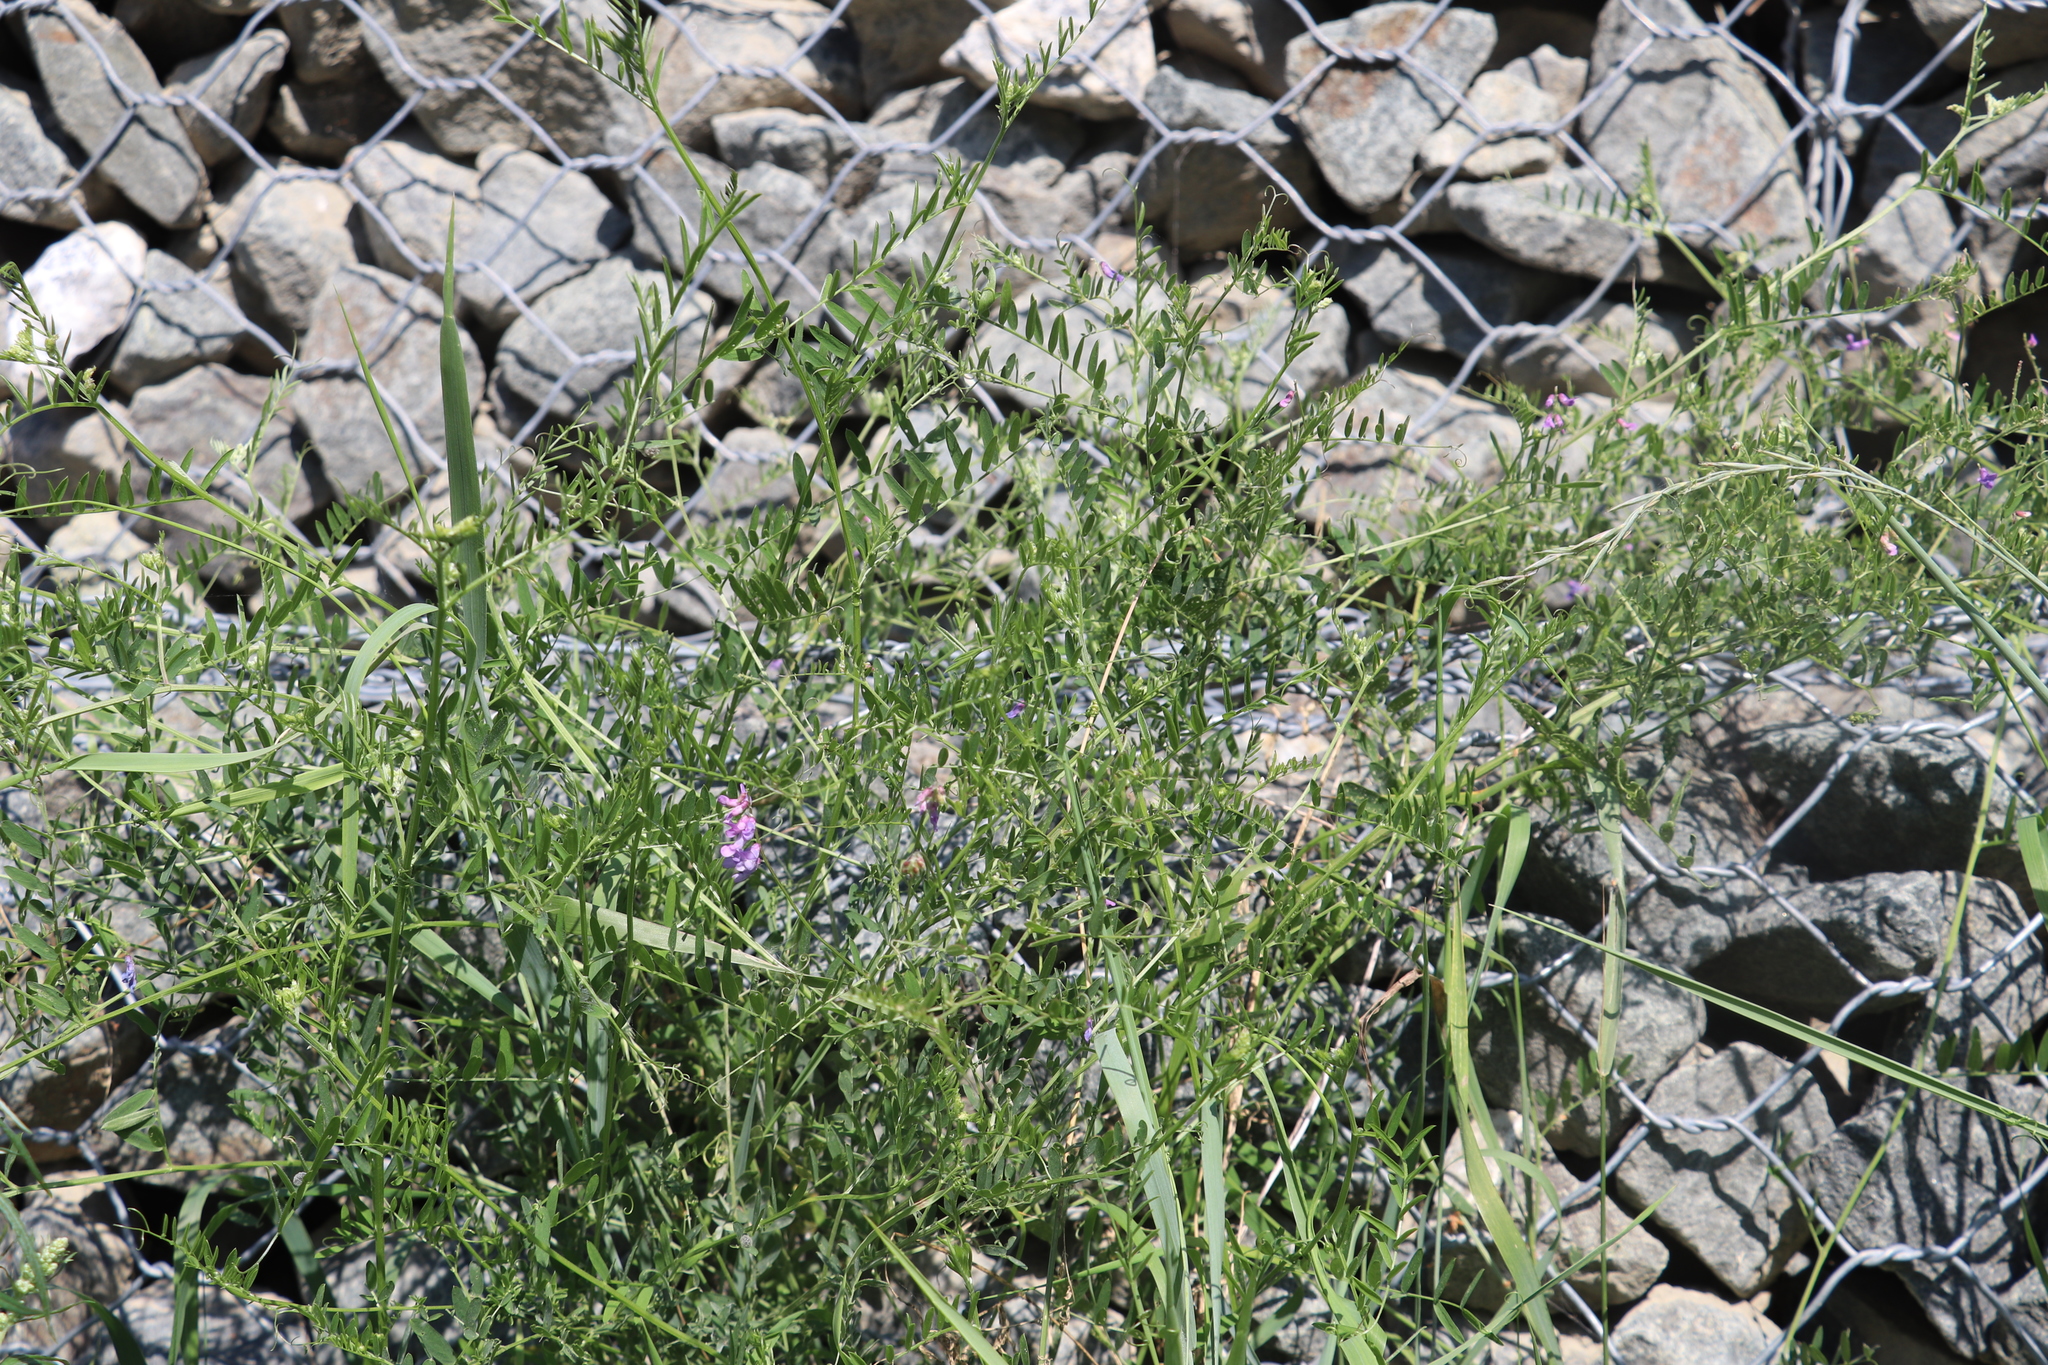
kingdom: Plantae
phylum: Tracheophyta
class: Magnoliopsida
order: Fabales
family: Fabaceae
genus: Vicia
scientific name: Vicia cracca
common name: Bird vetch
